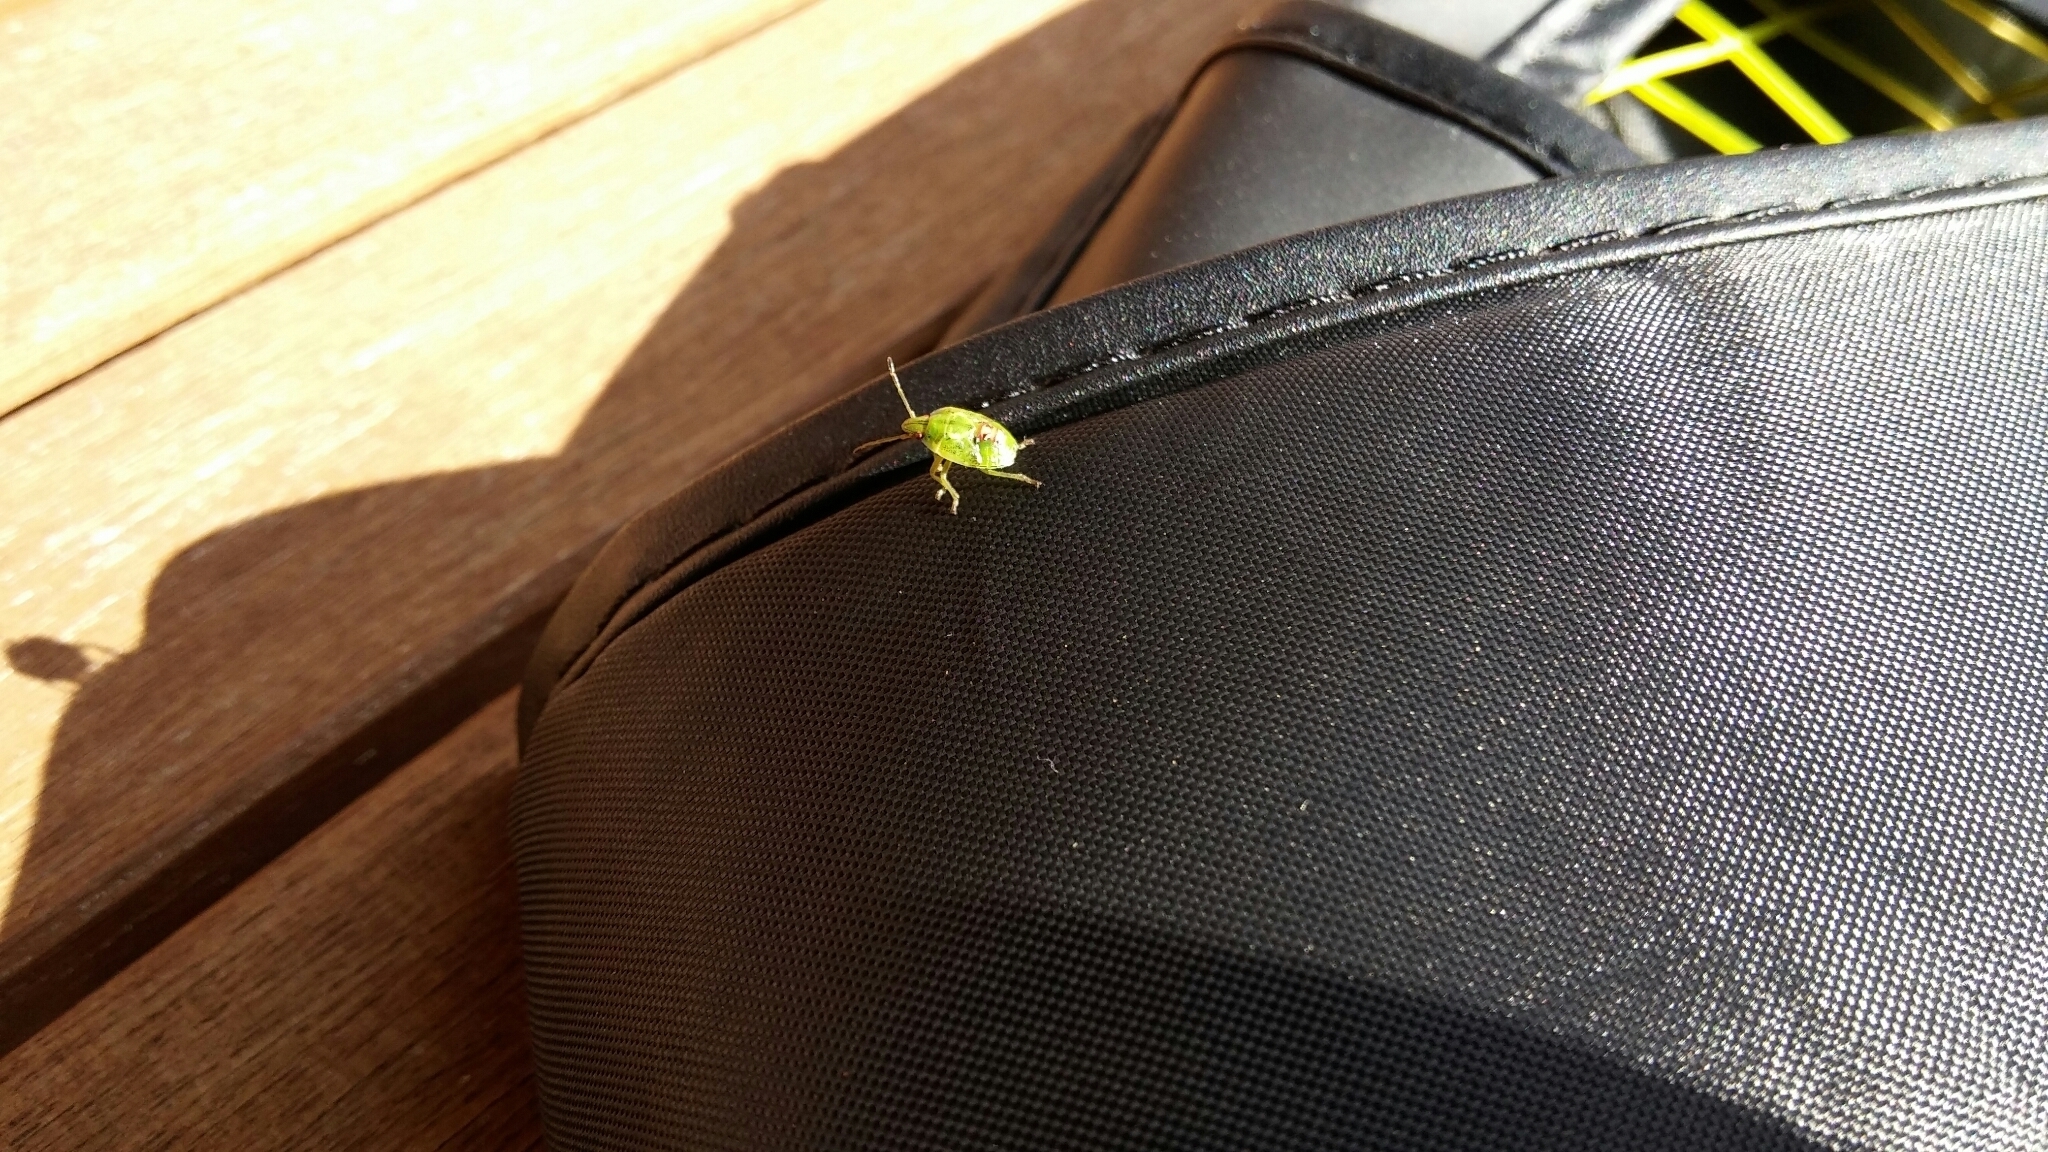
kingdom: Animalia
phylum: Arthropoda
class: Insecta
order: Hemiptera
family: Acanthosomatidae
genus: Elasmostethus
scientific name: Elasmostethus interstinctus
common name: Birch shieldbug
